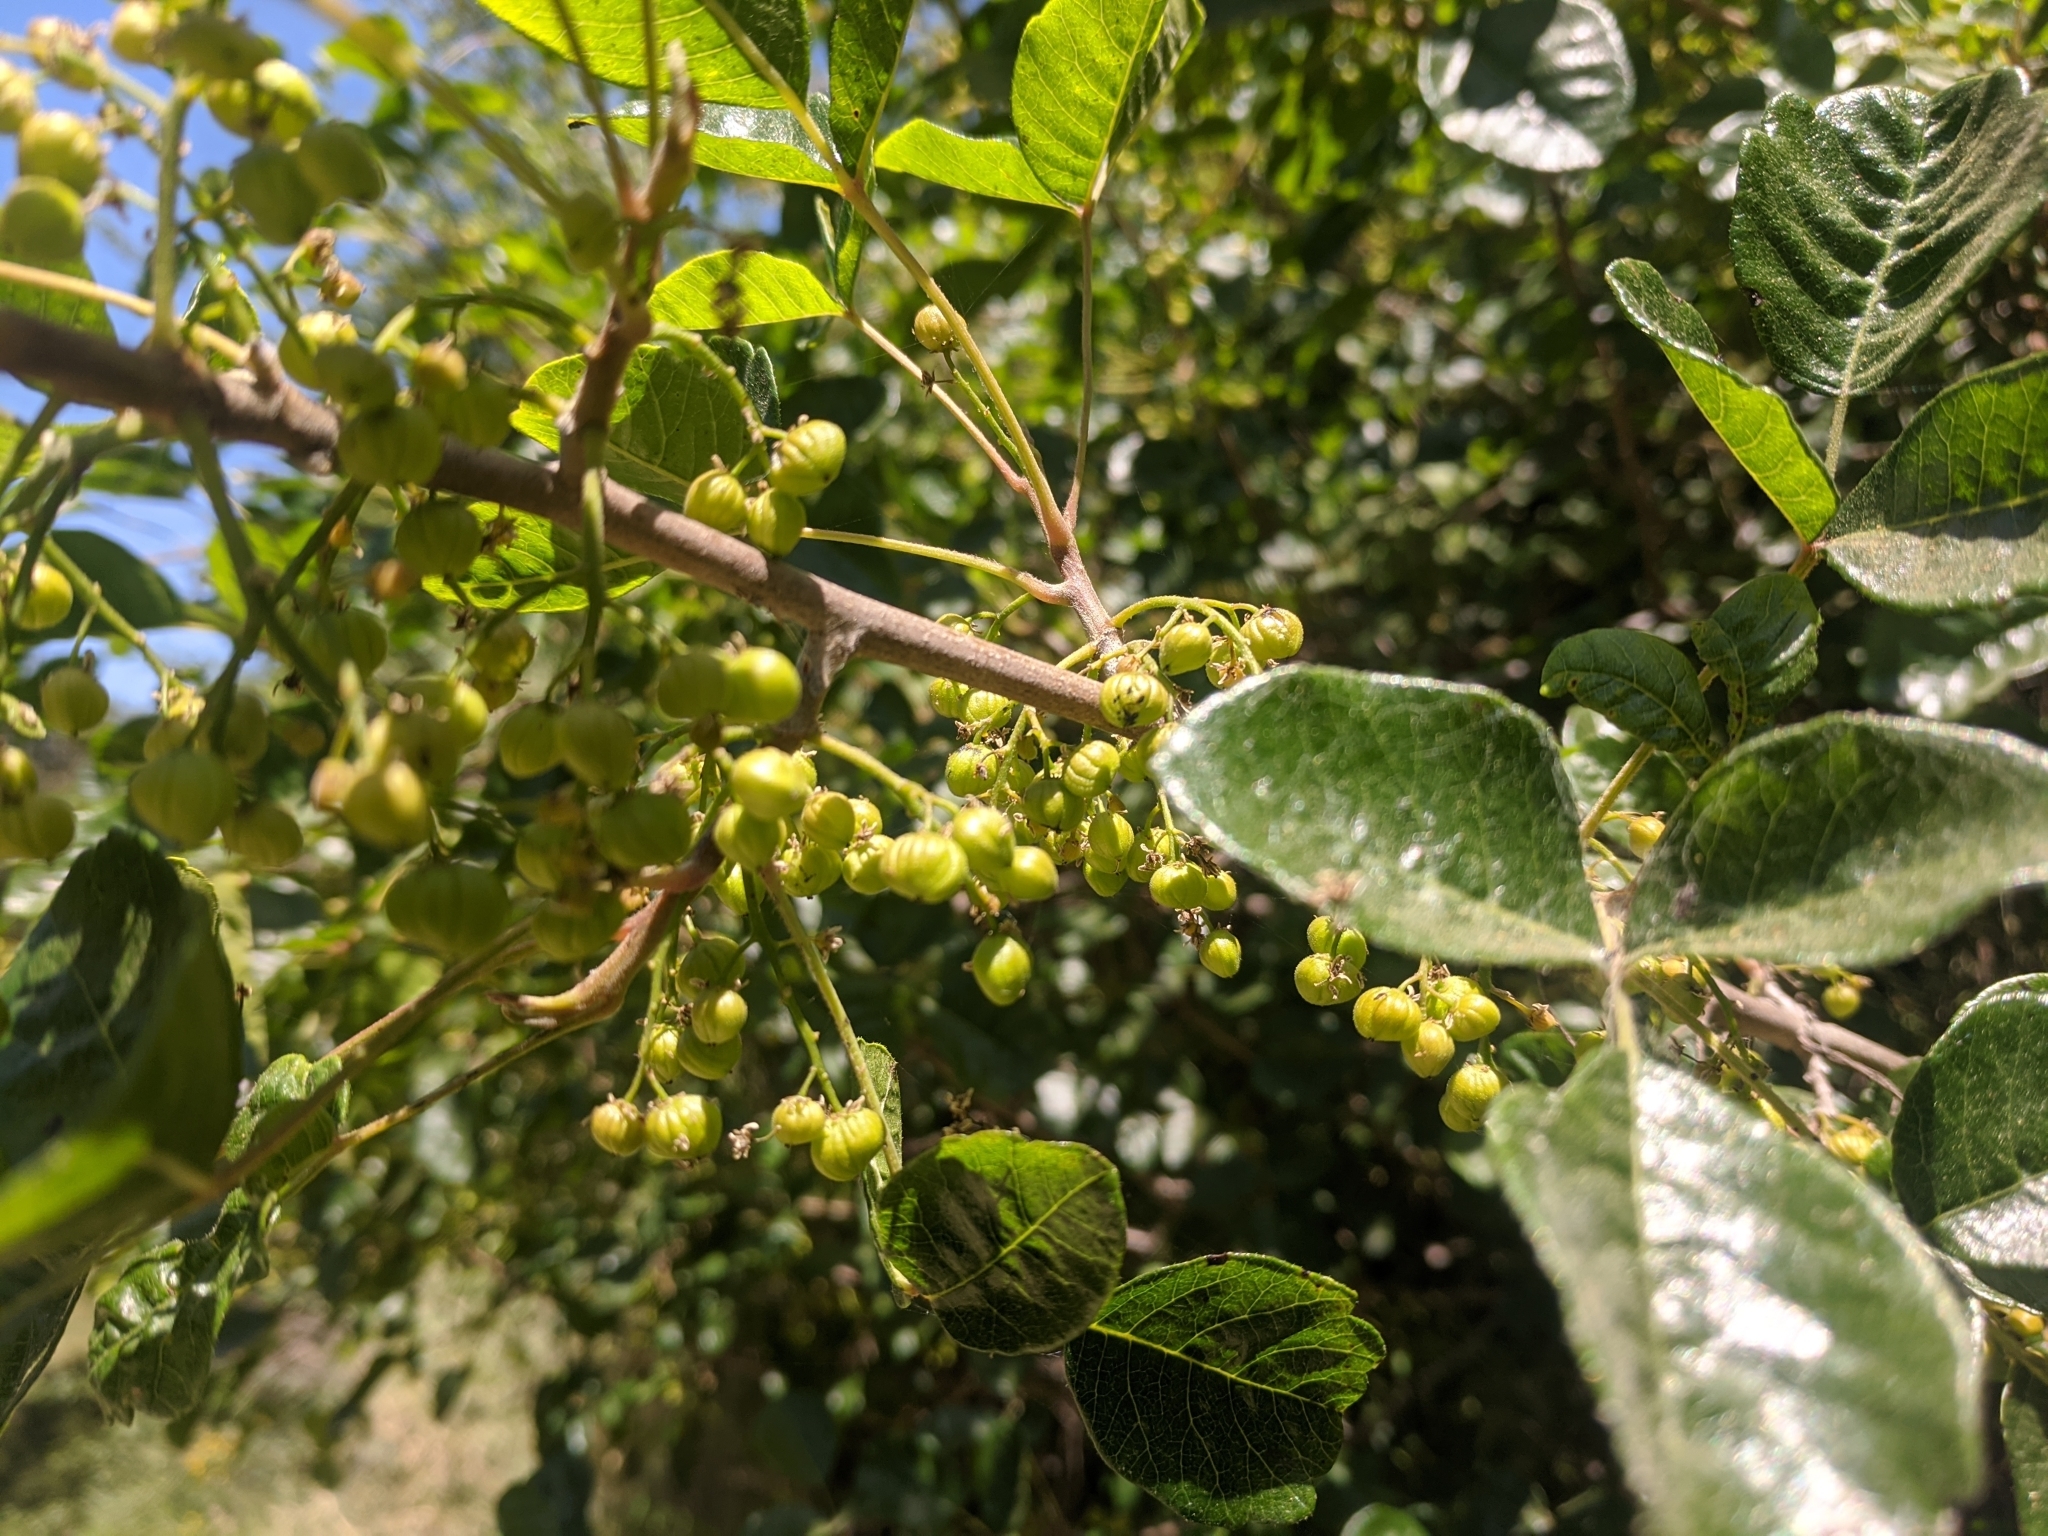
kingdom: Plantae
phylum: Tracheophyta
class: Magnoliopsida
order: Sapindales
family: Anacardiaceae
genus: Toxicodendron
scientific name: Toxicodendron diversilobum
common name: Pacific poison-oak
